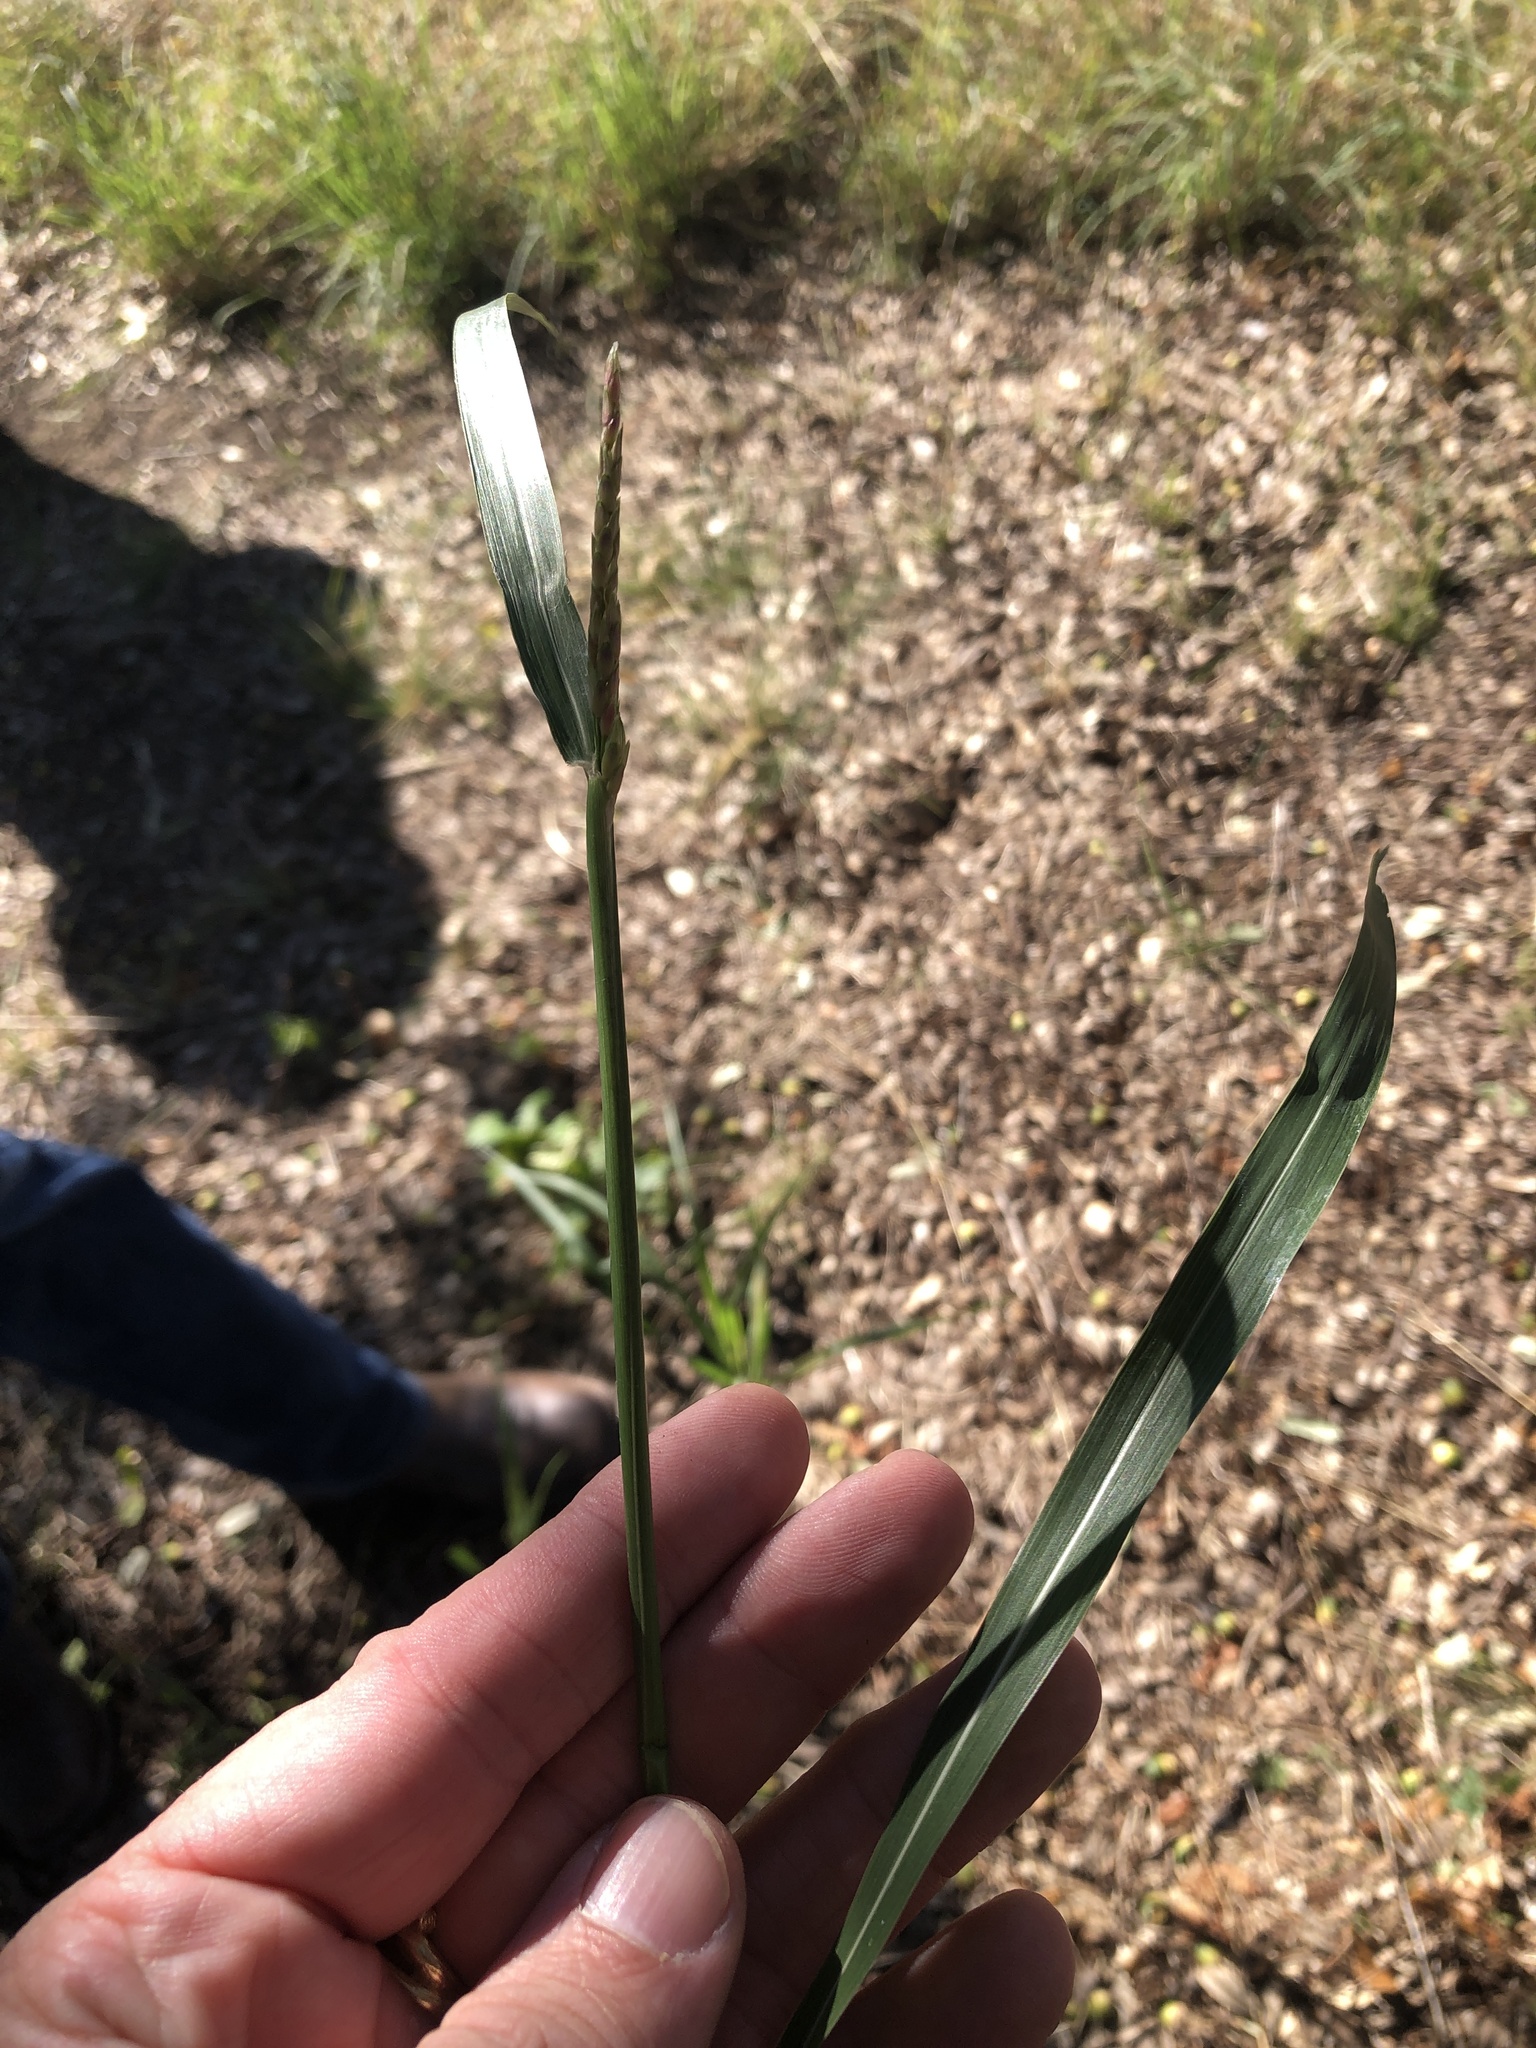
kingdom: Plantae
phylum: Tracheophyta
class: Liliopsida
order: Poales
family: Poaceae
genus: Sorghum
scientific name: Sorghum halepense
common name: Johnson-grass
